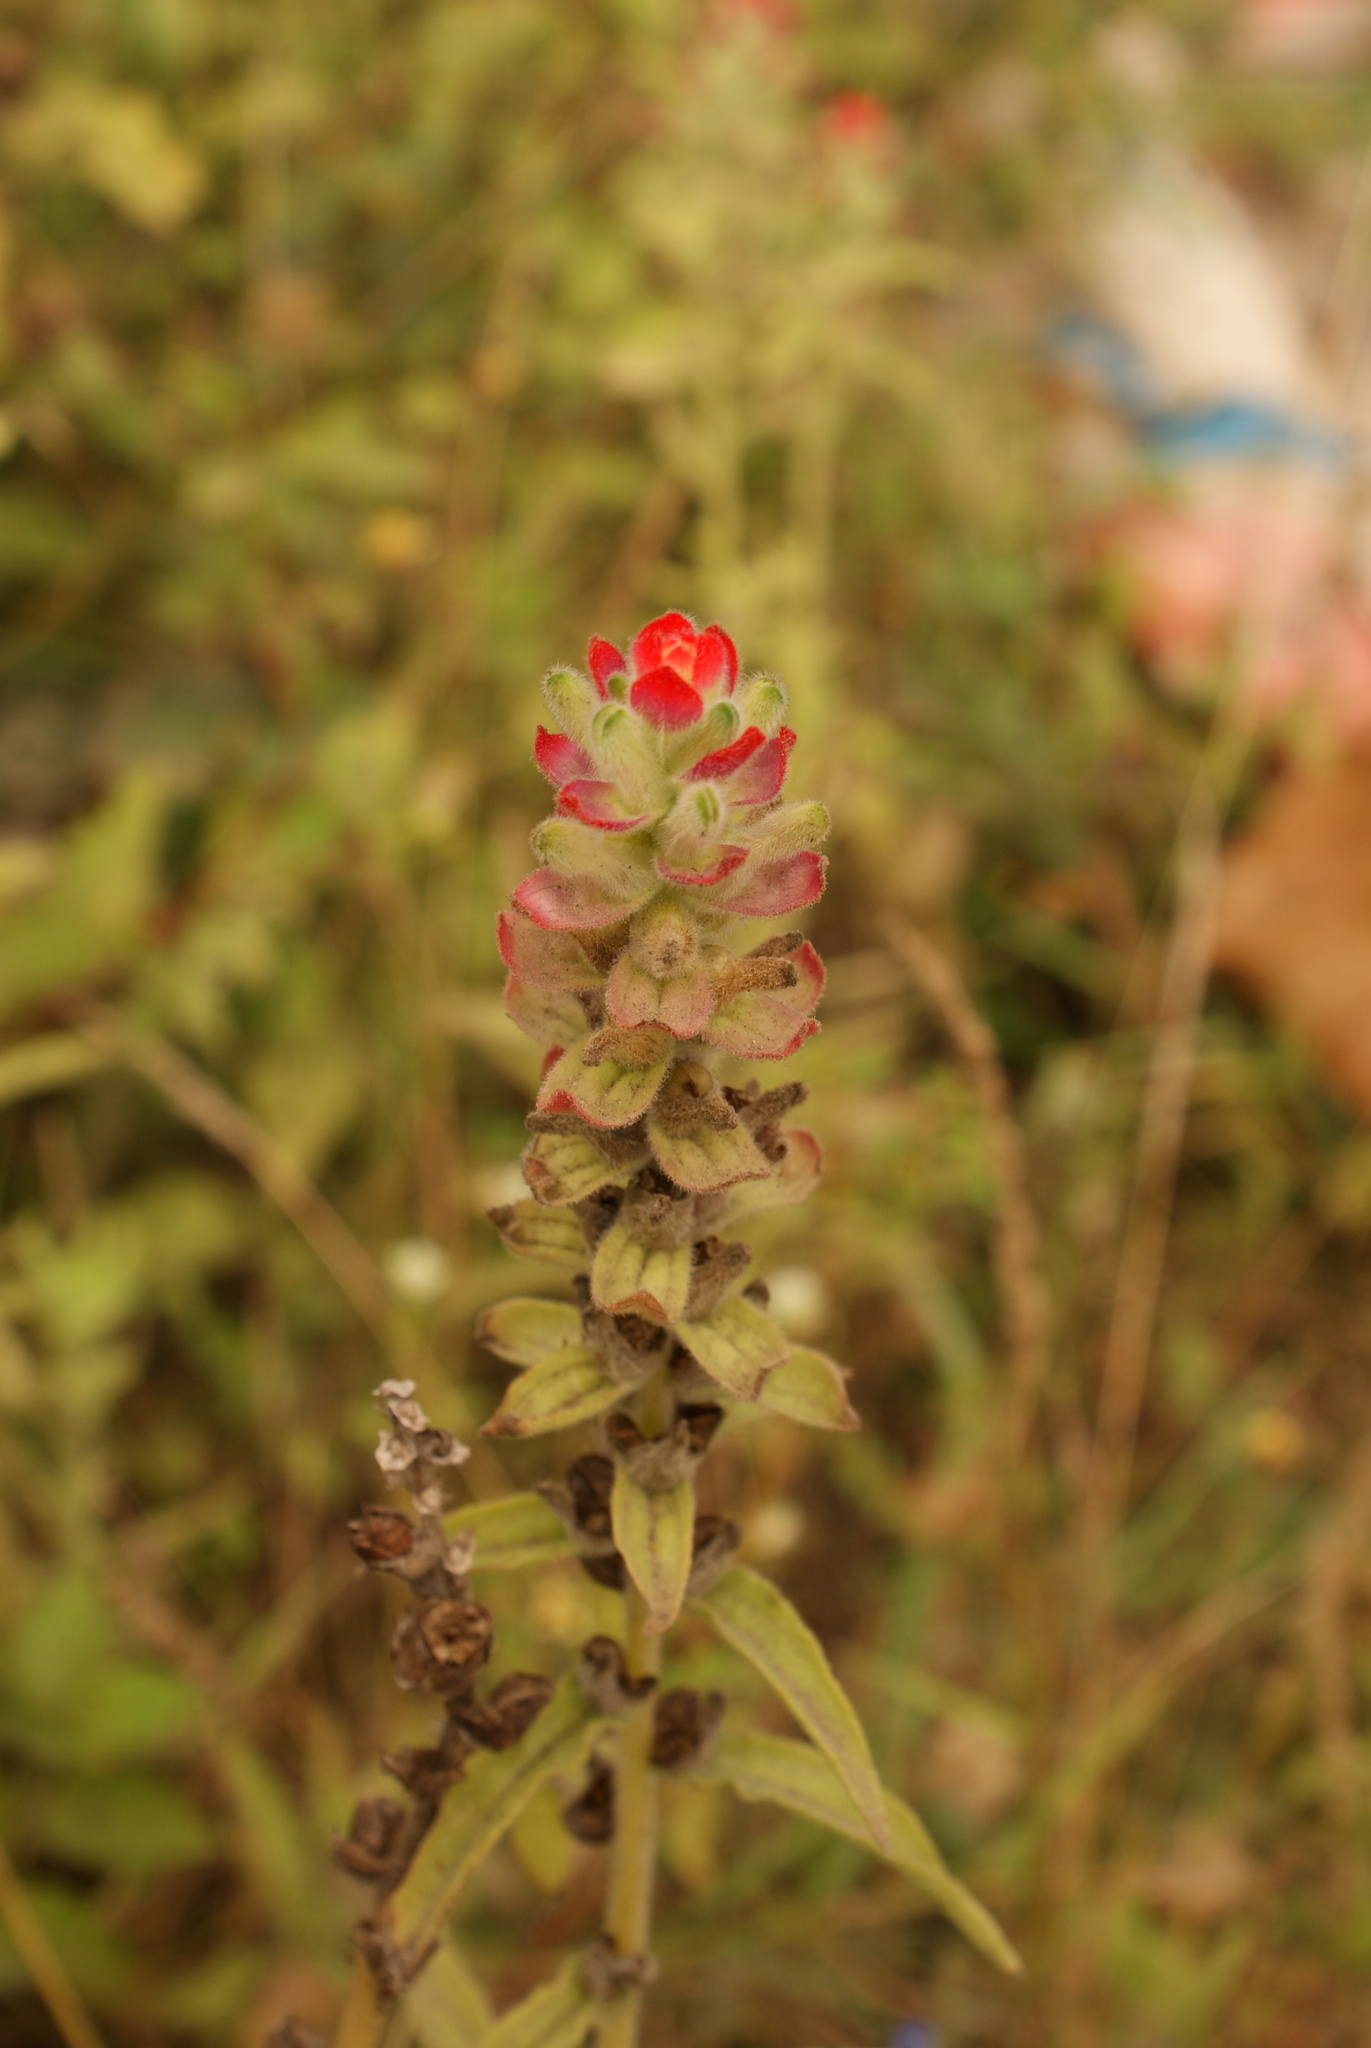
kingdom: Plantae
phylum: Tracheophyta
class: Magnoliopsida
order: Lamiales
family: Orobanchaceae
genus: Castilleja
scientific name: Castilleja arvensis
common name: Indian paintbrush
